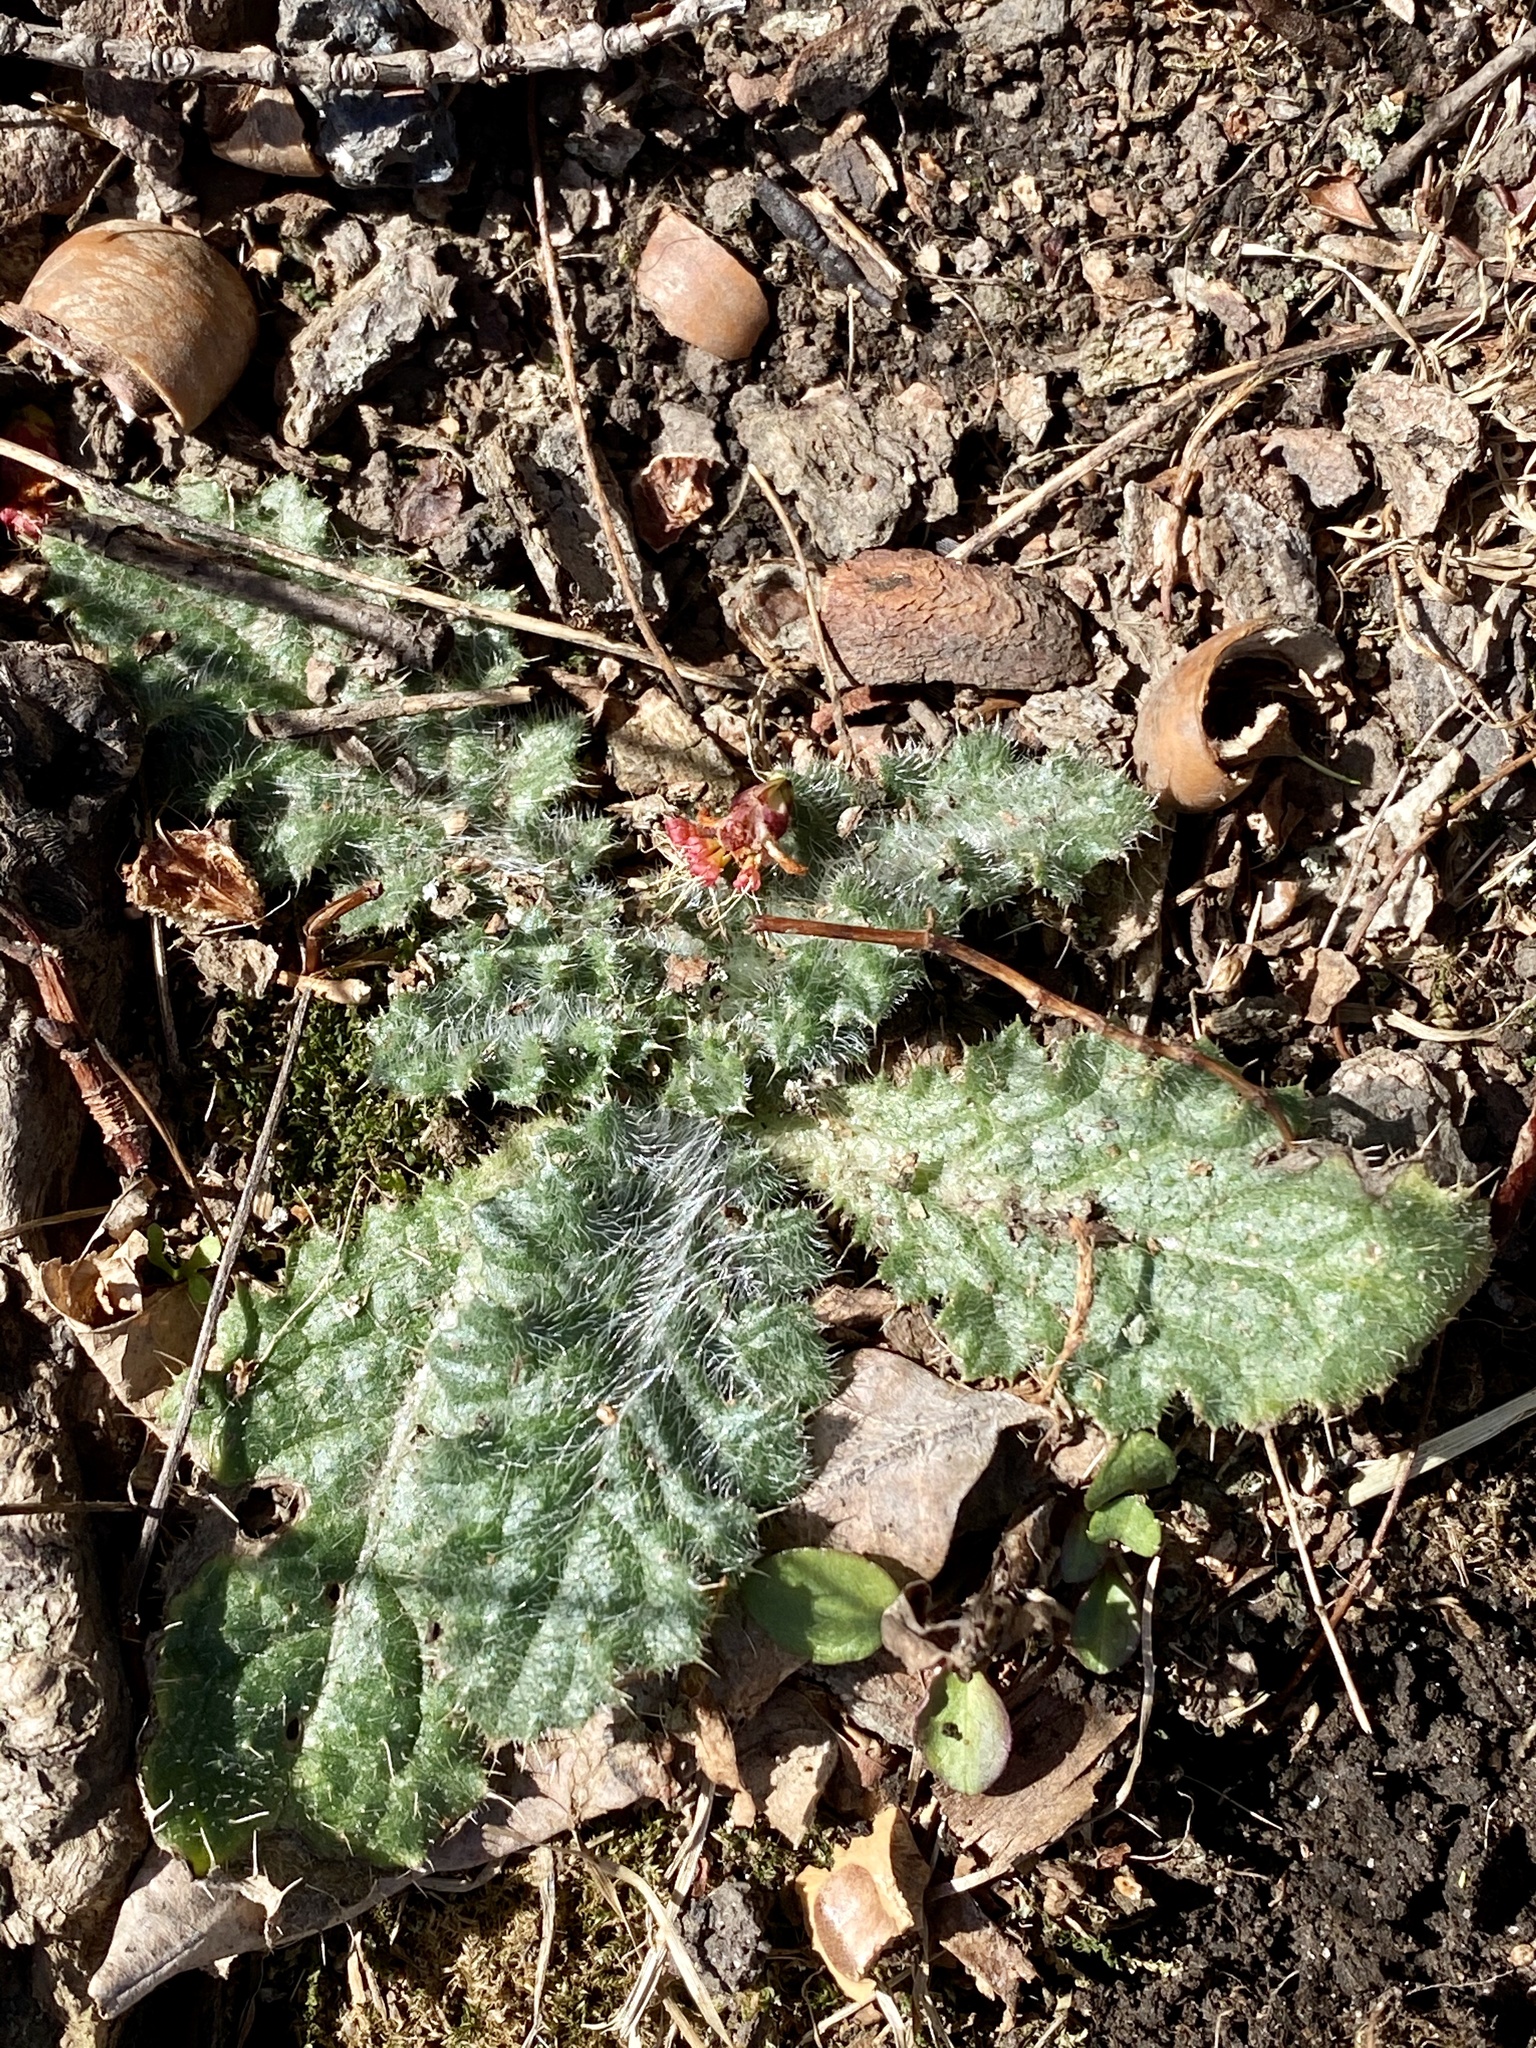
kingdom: Plantae
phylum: Tracheophyta
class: Magnoliopsida
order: Asterales
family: Asteraceae
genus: Cirsium
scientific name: Cirsium vulgare
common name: Bull thistle
